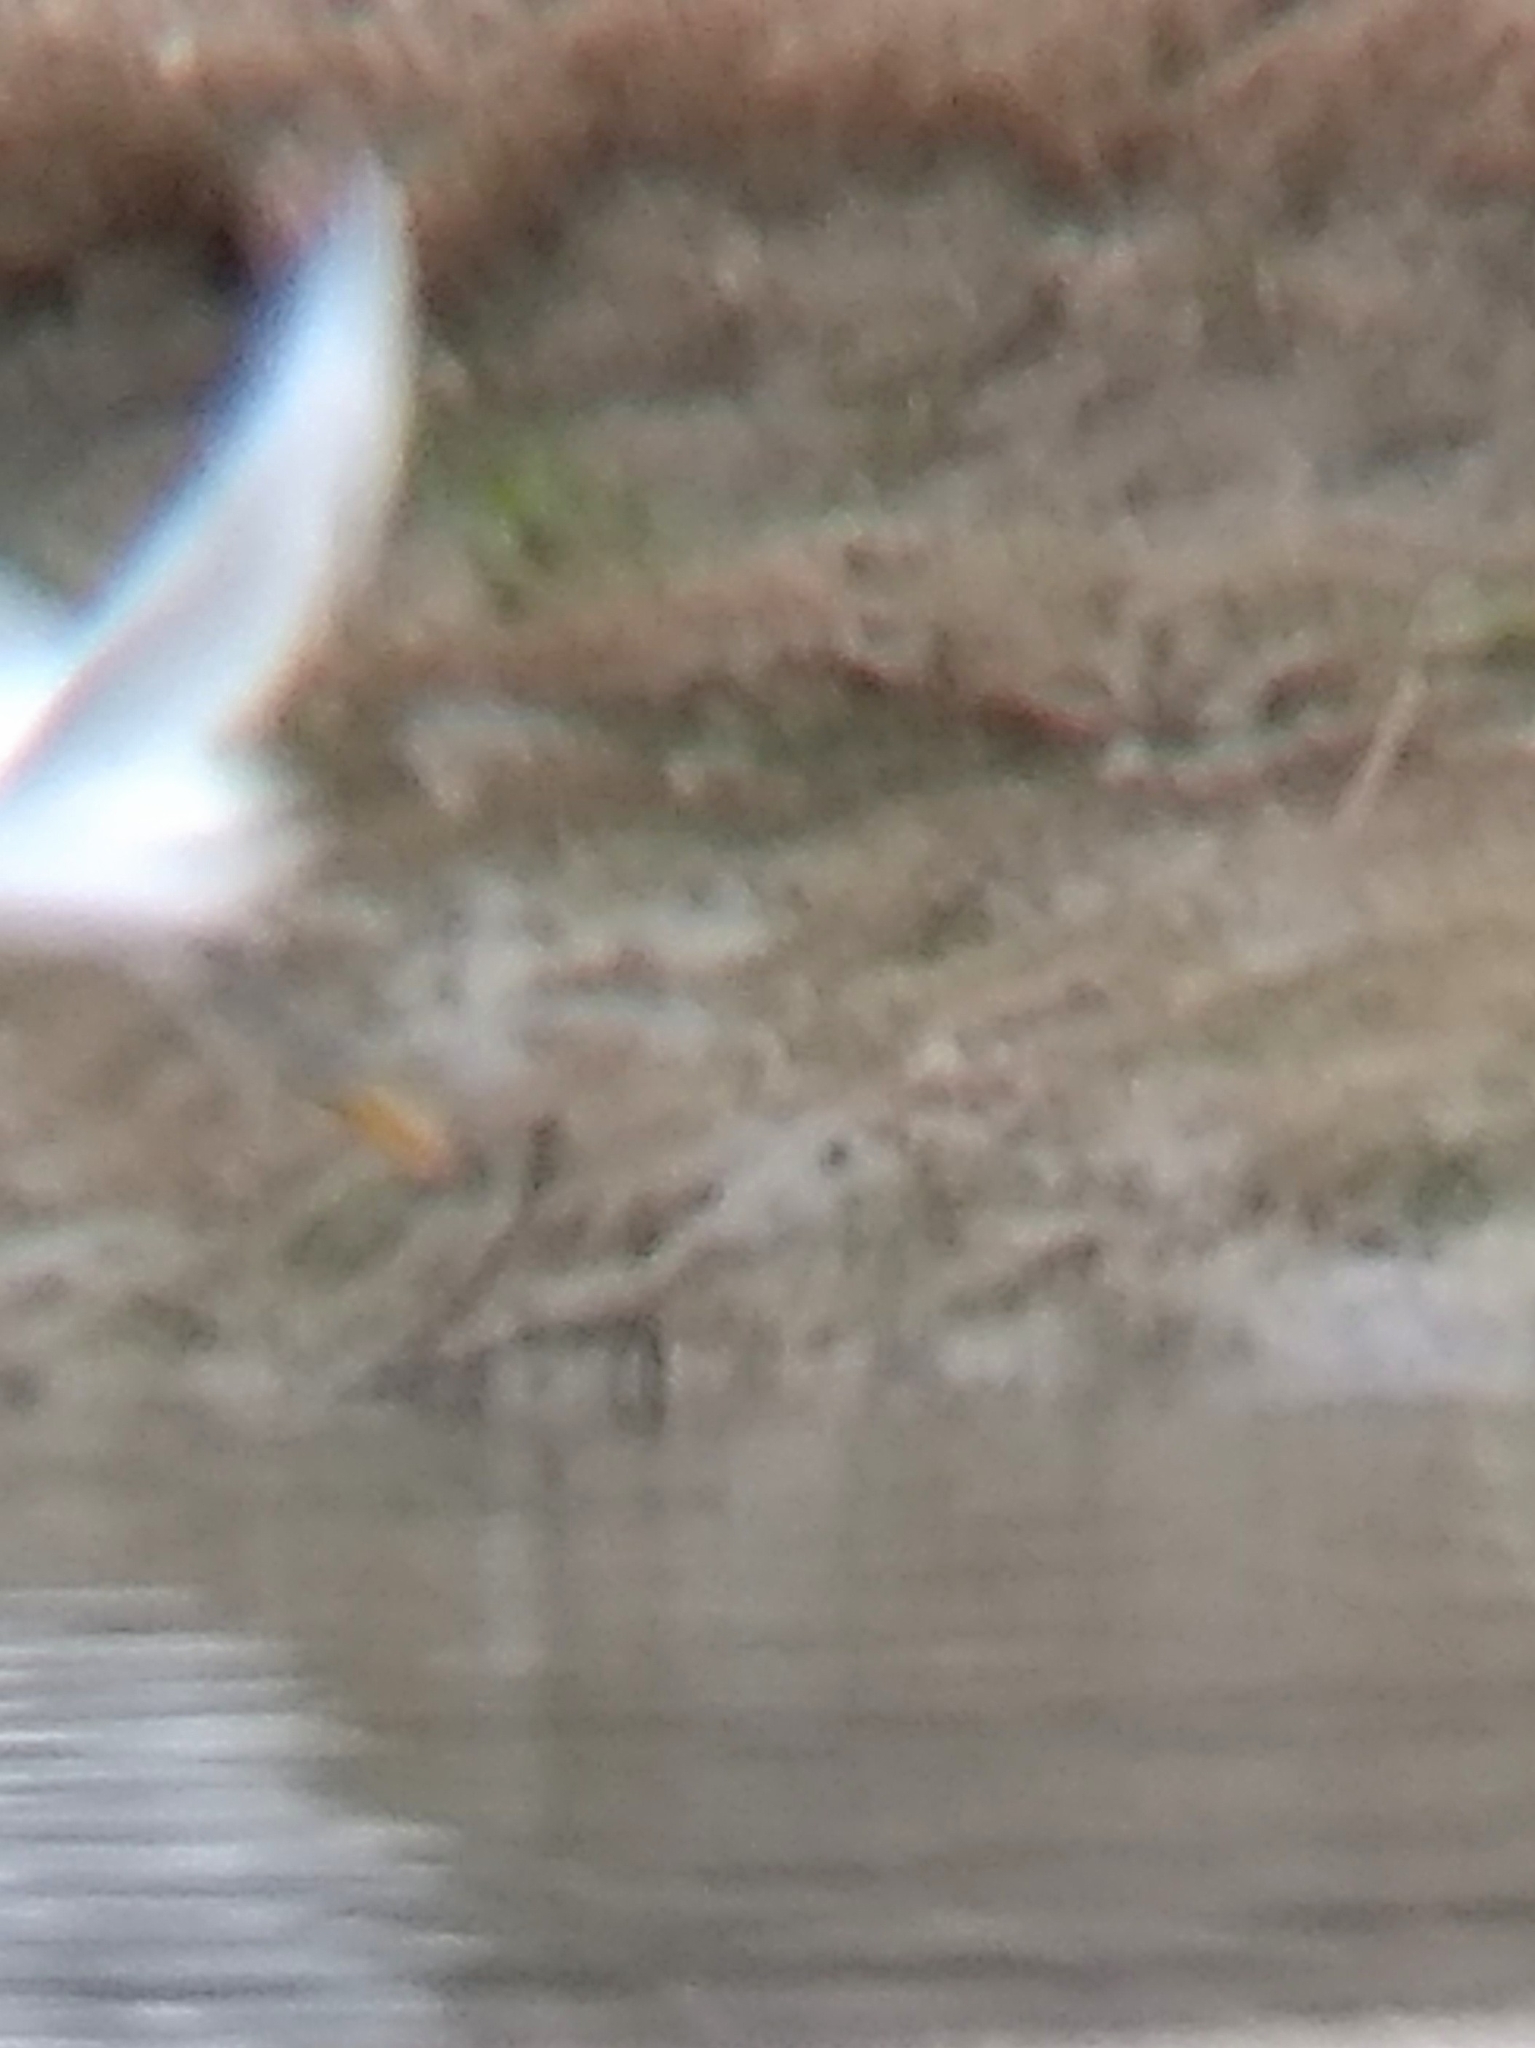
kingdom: Animalia
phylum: Chordata
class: Aves
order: Pelecaniformes
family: Ardeidae
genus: Egretta
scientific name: Egretta thula
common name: Snowy egret
